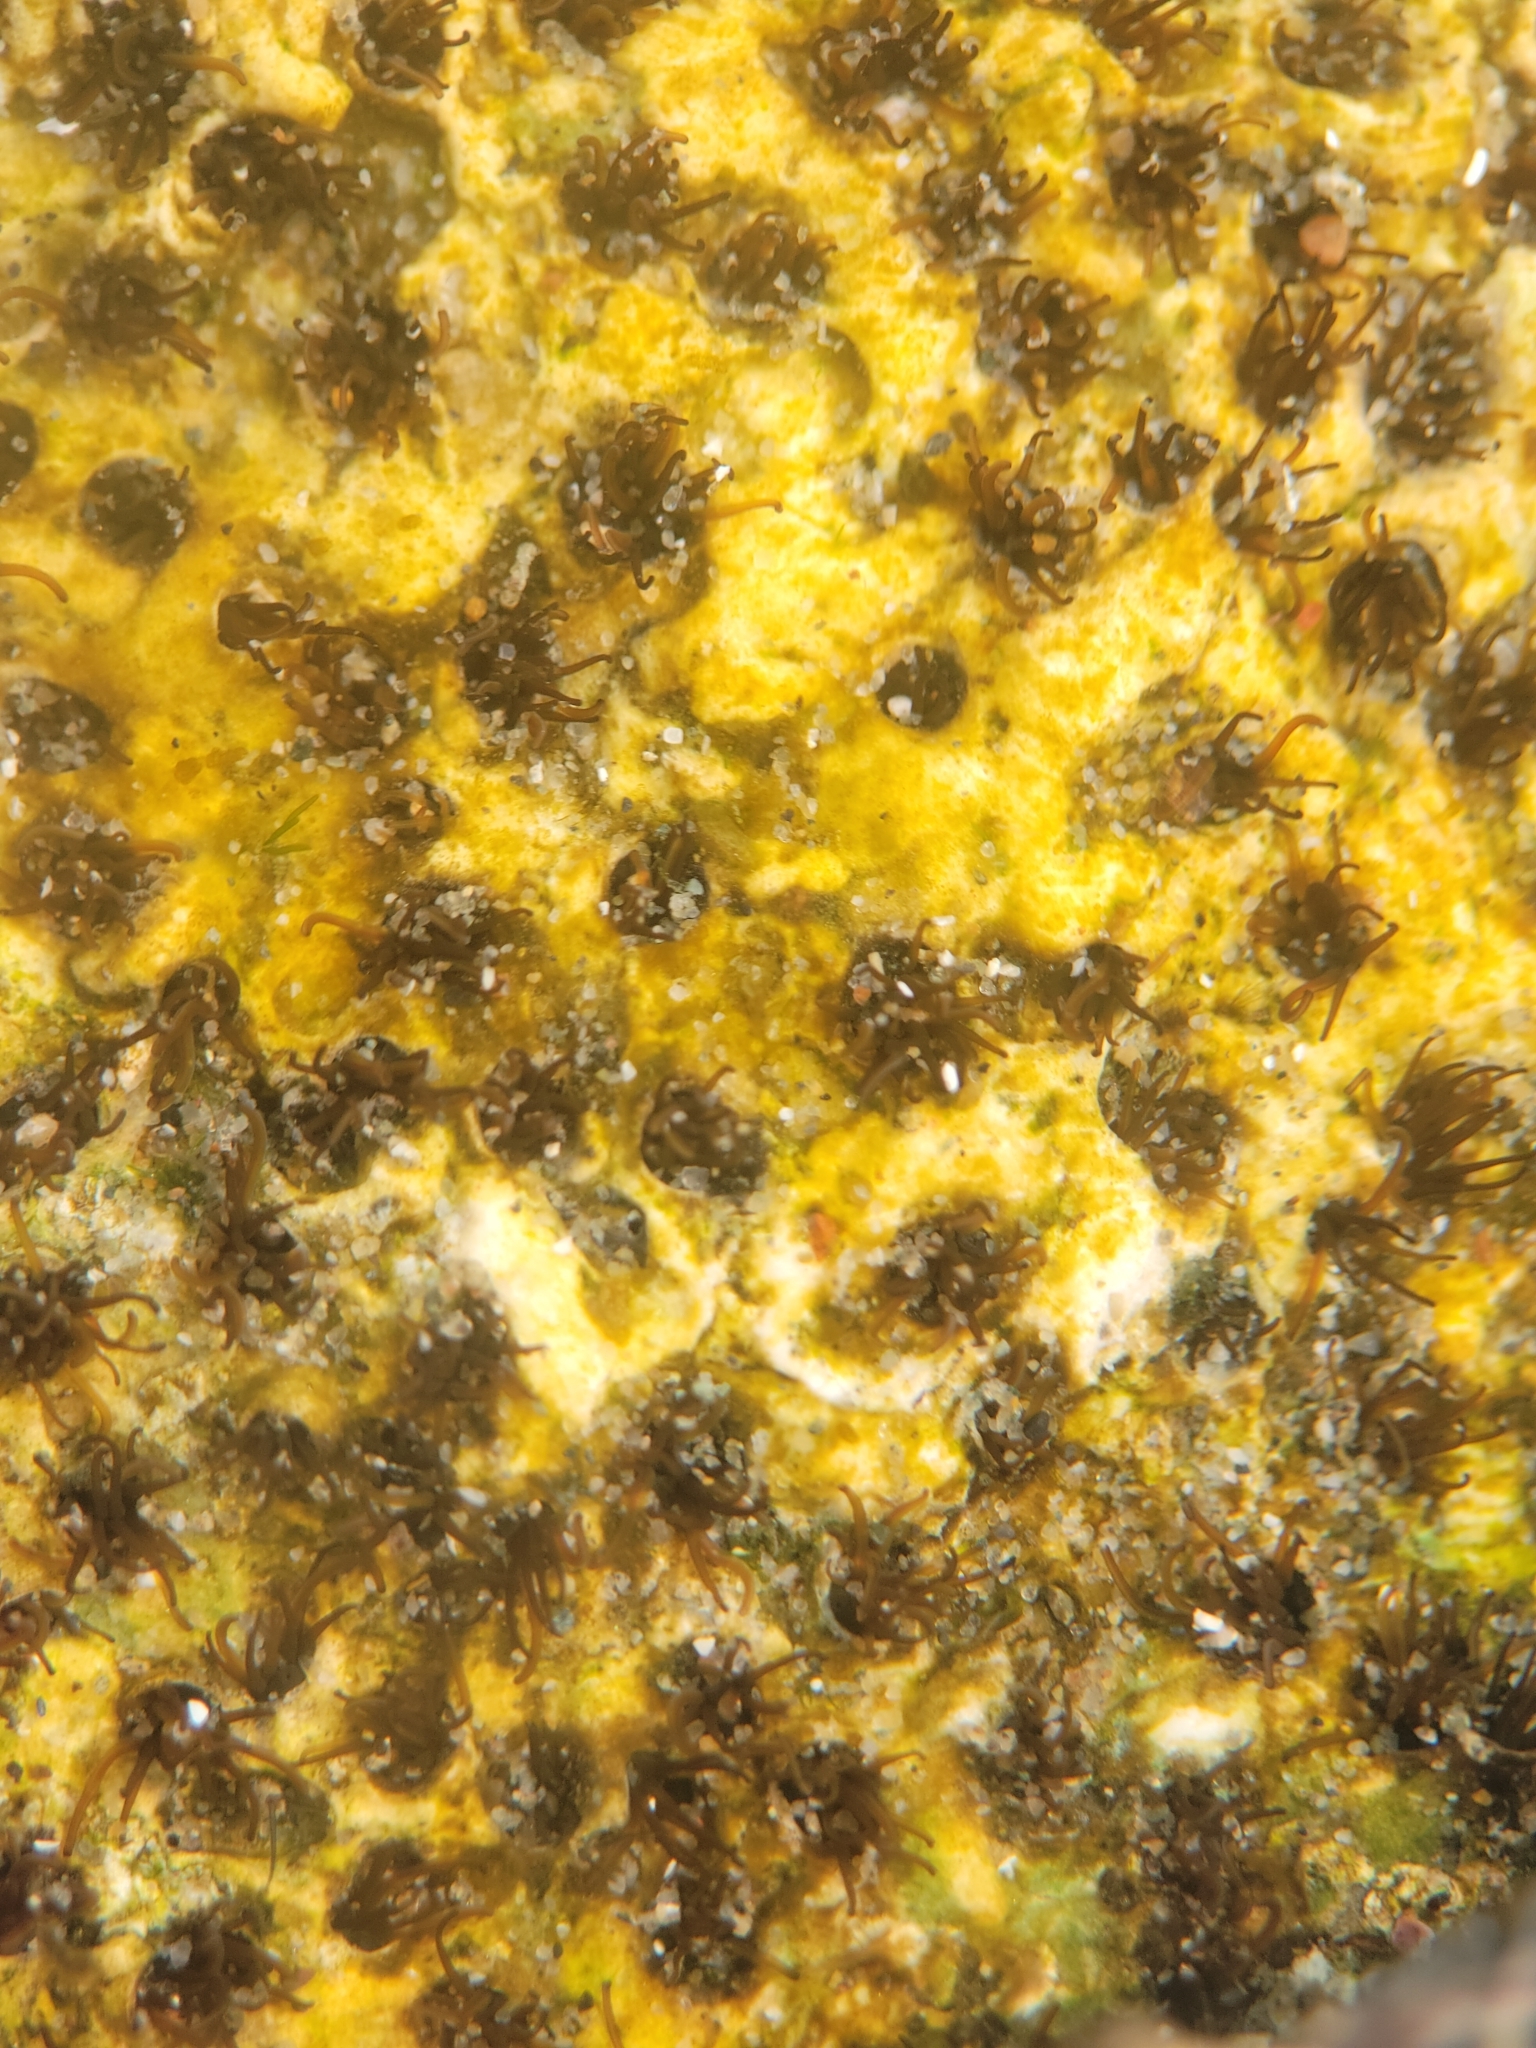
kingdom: Animalia
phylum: Annelida
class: Polychaeta
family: Cirratulidae
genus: Dodecaceria
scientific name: Dodecaceria pacifica
